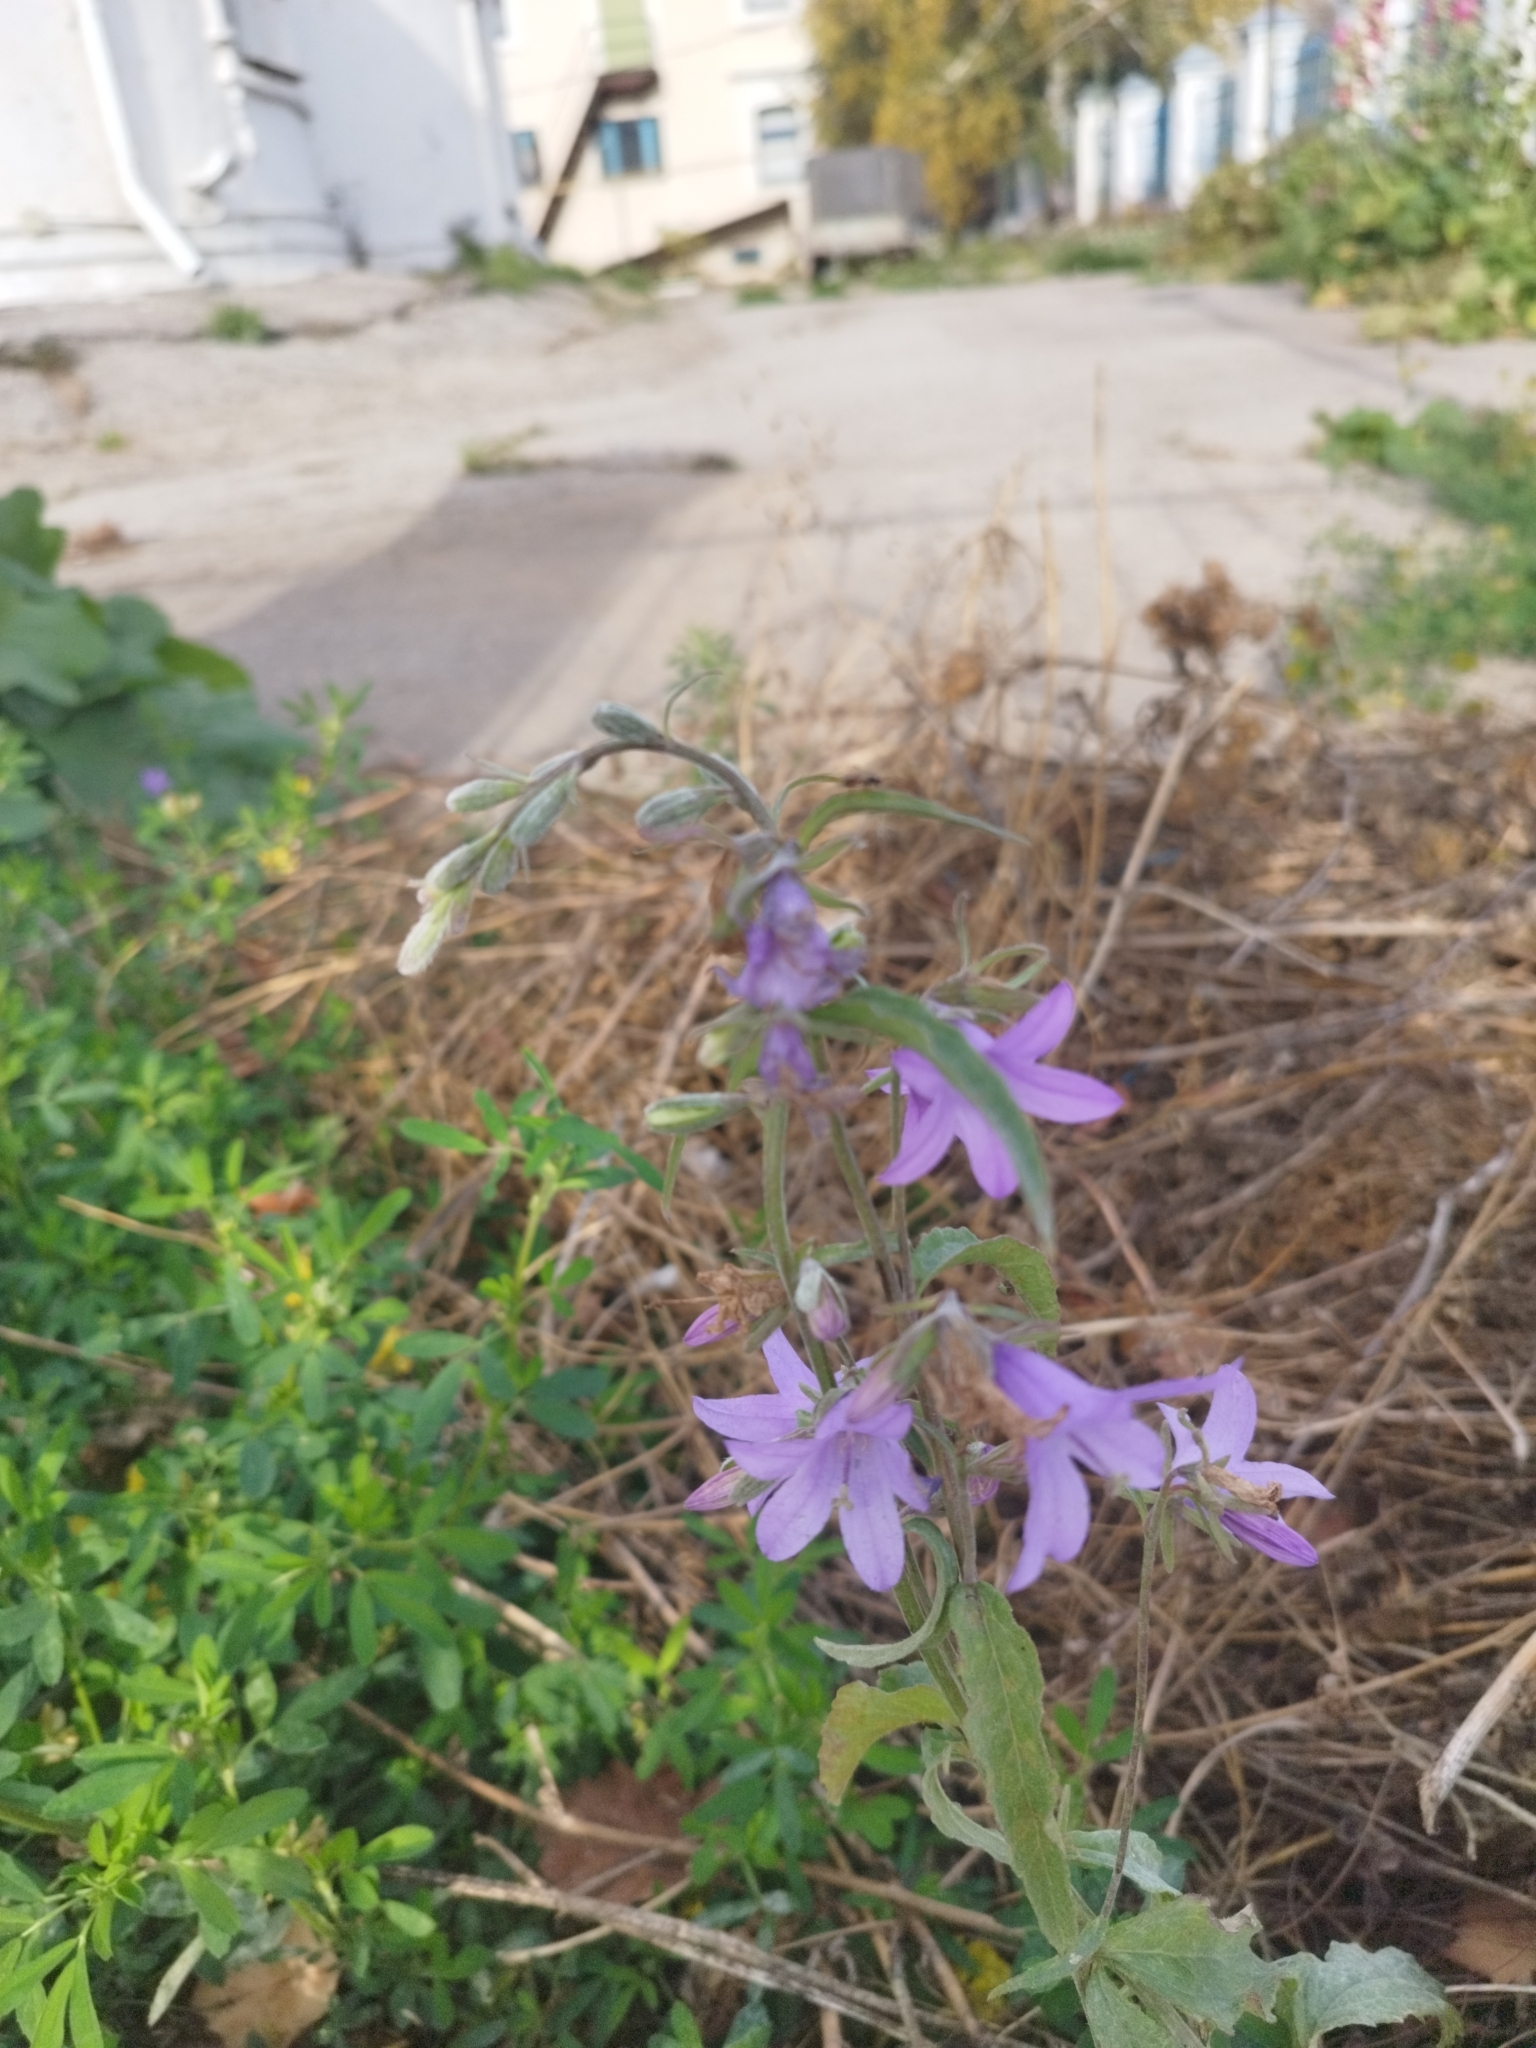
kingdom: Plantae
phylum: Tracheophyta
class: Magnoliopsida
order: Asterales
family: Campanulaceae
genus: Campanula
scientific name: Campanula rapunculoides
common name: Creeping bellflower
